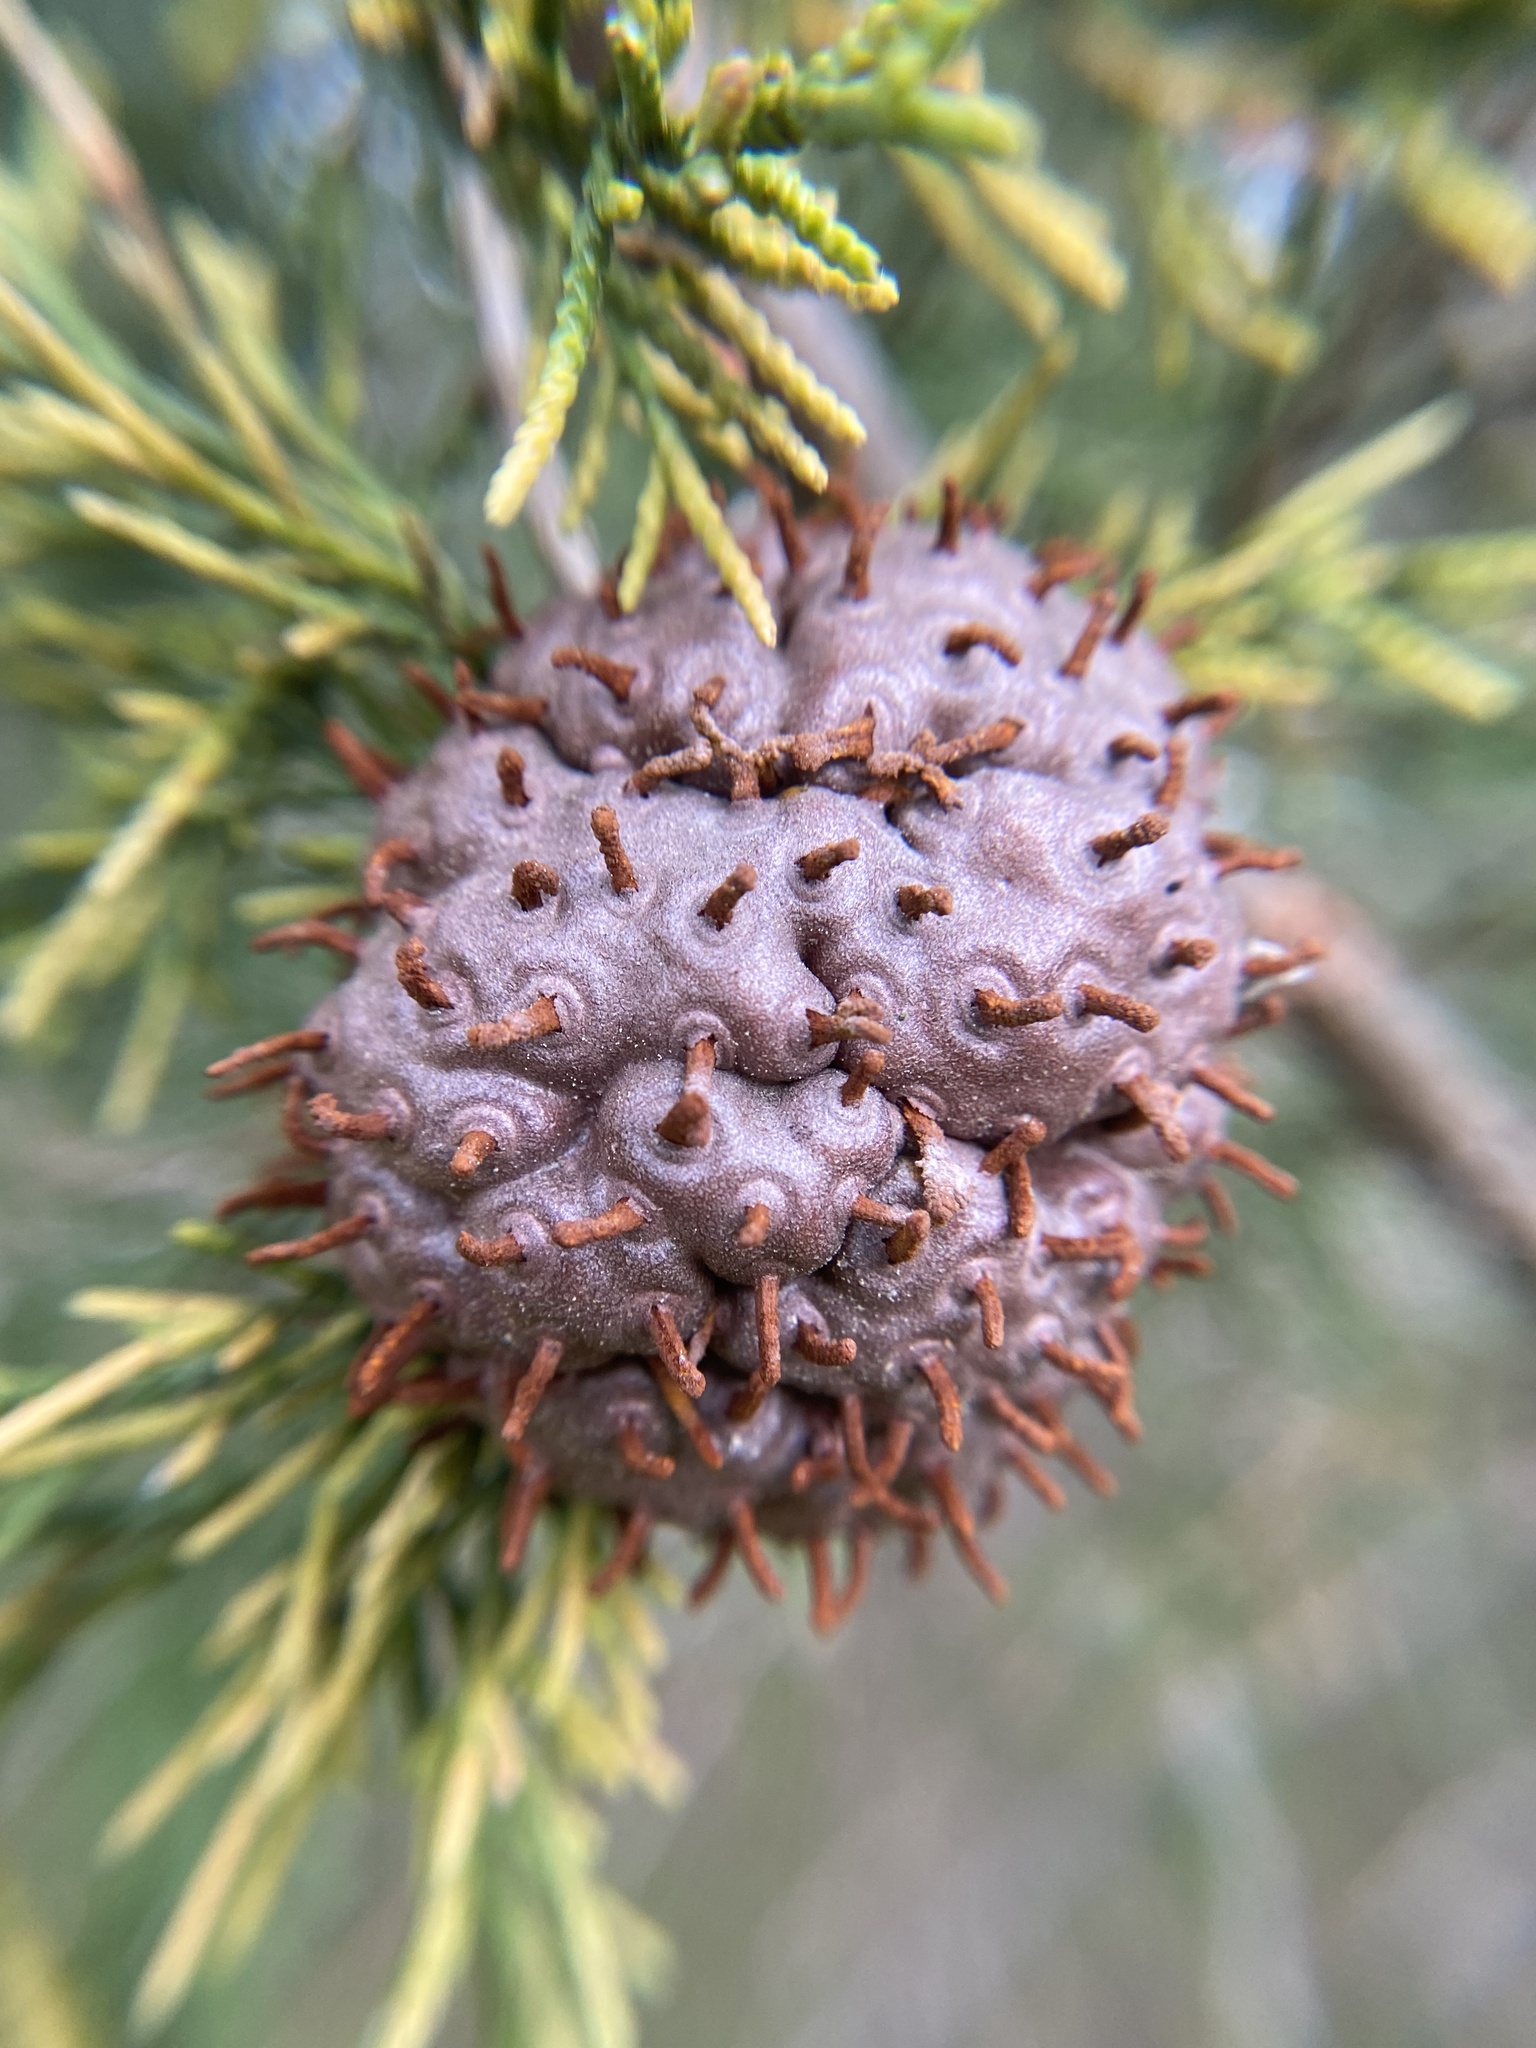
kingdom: Fungi
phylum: Basidiomycota
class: Pucciniomycetes
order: Pucciniales
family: Gymnosporangiaceae
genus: Gymnosporangium
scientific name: Gymnosporangium juniperi-virginianae
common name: Juniper-apple rust
